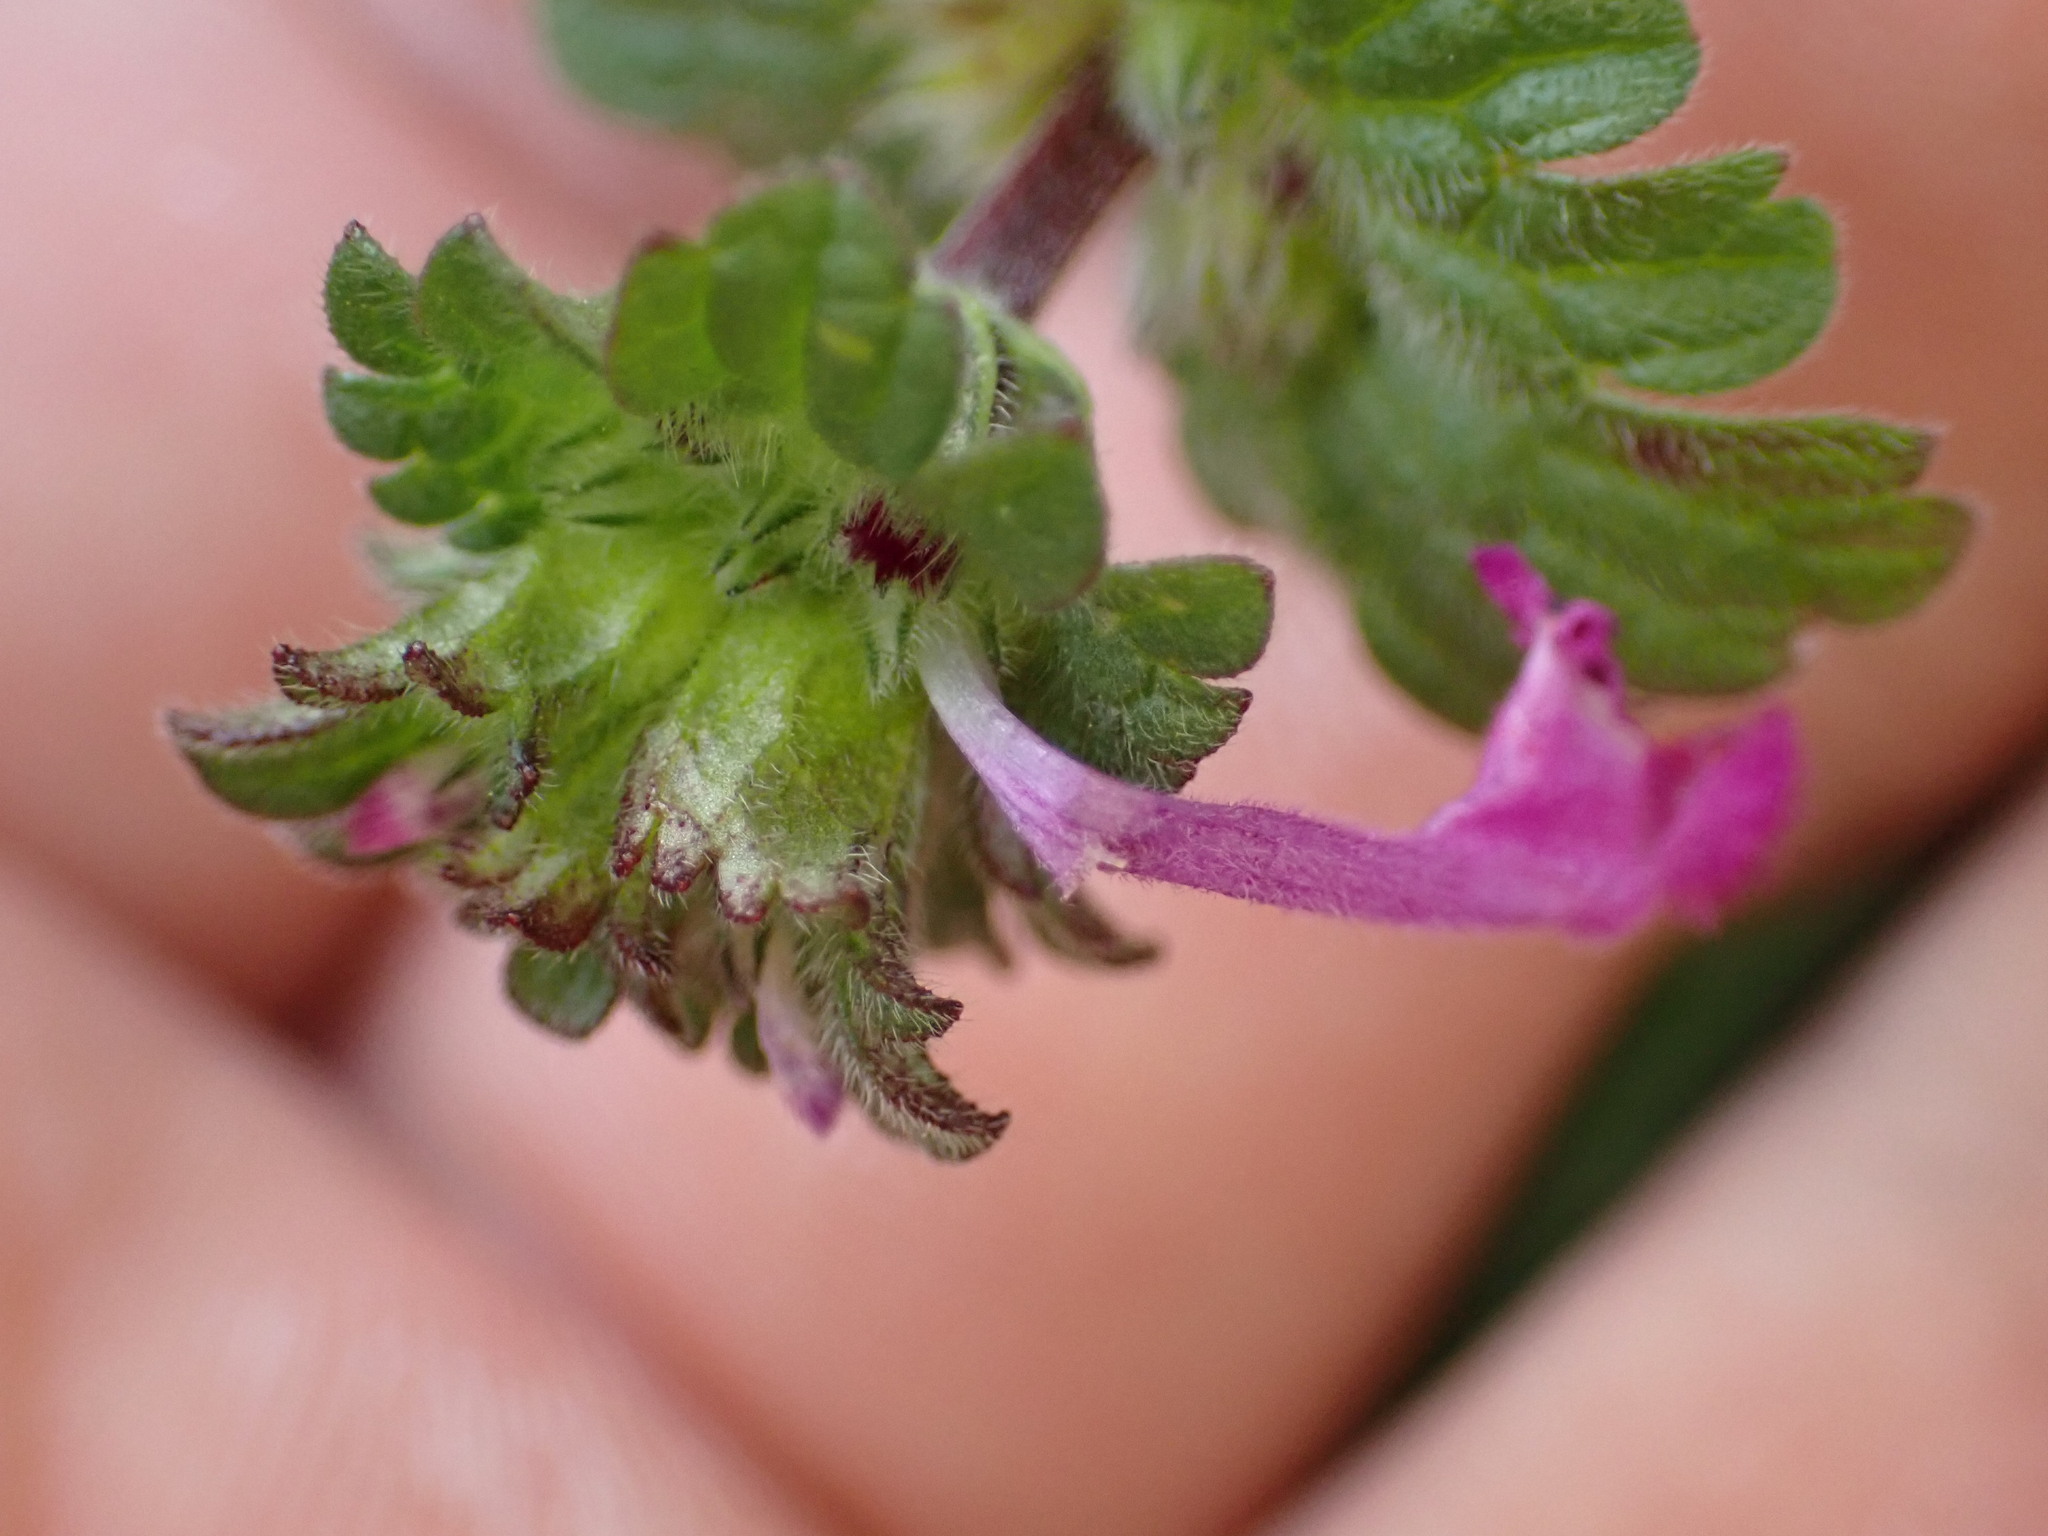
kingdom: Plantae
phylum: Tracheophyta
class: Magnoliopsida
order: Lamiales
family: Lamiaceae
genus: Lamium
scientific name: Lamium amplexicaule
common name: Henbit dead-nettle
